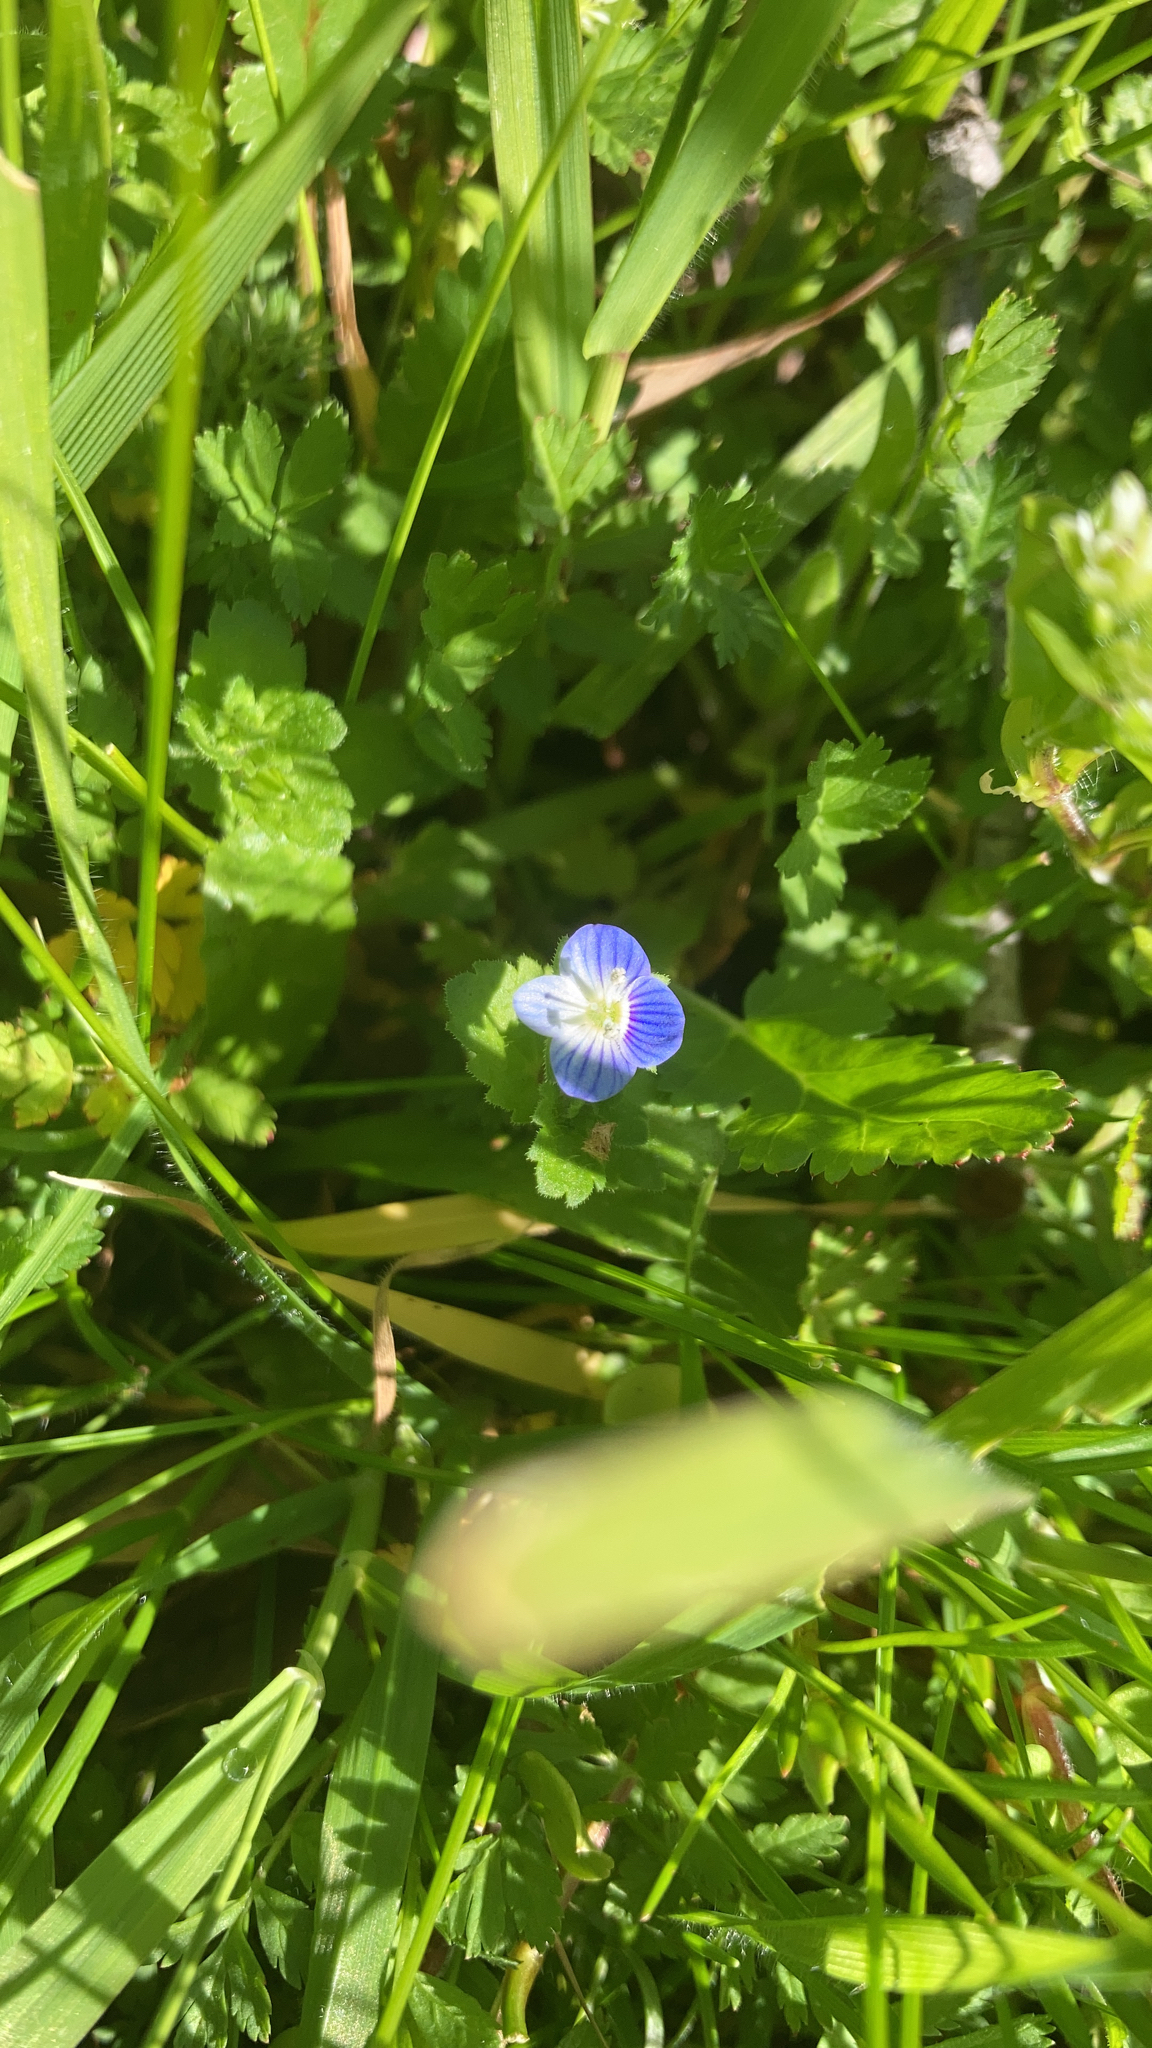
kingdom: Plantae
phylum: Tracheophyta
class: Magnoliopsida
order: Lamiales
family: Plantaginaceae
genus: Veronica
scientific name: Veronica persica
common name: Common field-speedwell
